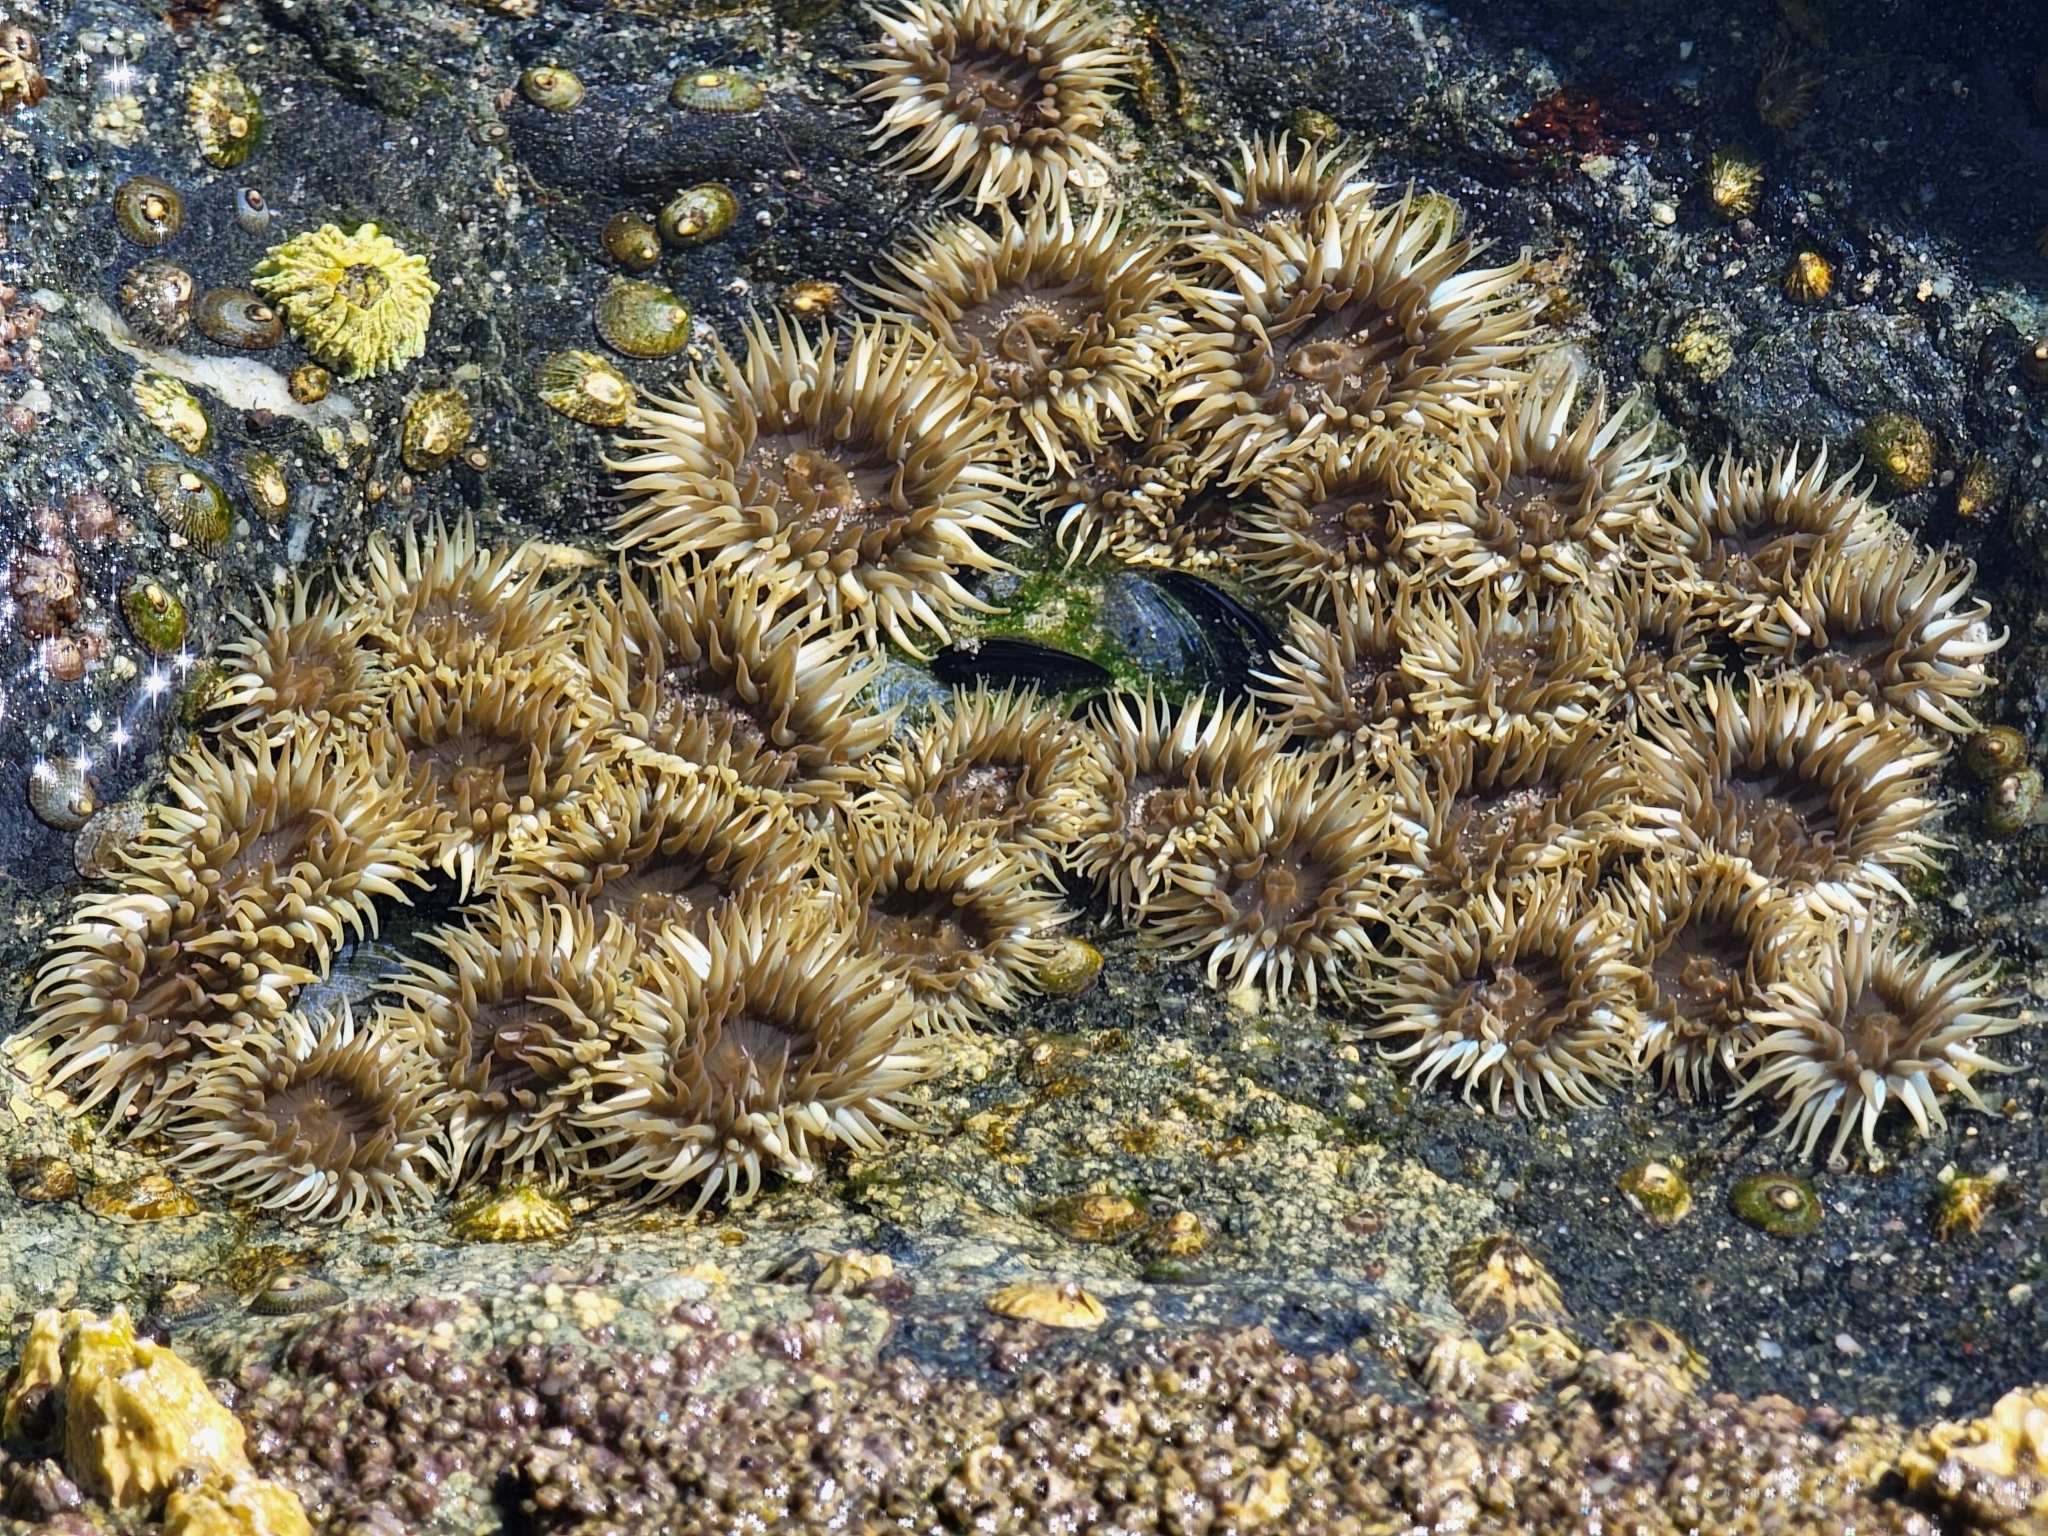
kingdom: Animalia
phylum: Cnidaria
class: Anthozoa
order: Actiniaria
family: Actiniidae
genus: Anthopleura
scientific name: Anthopleura elegantissima
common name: Clonal anemone
